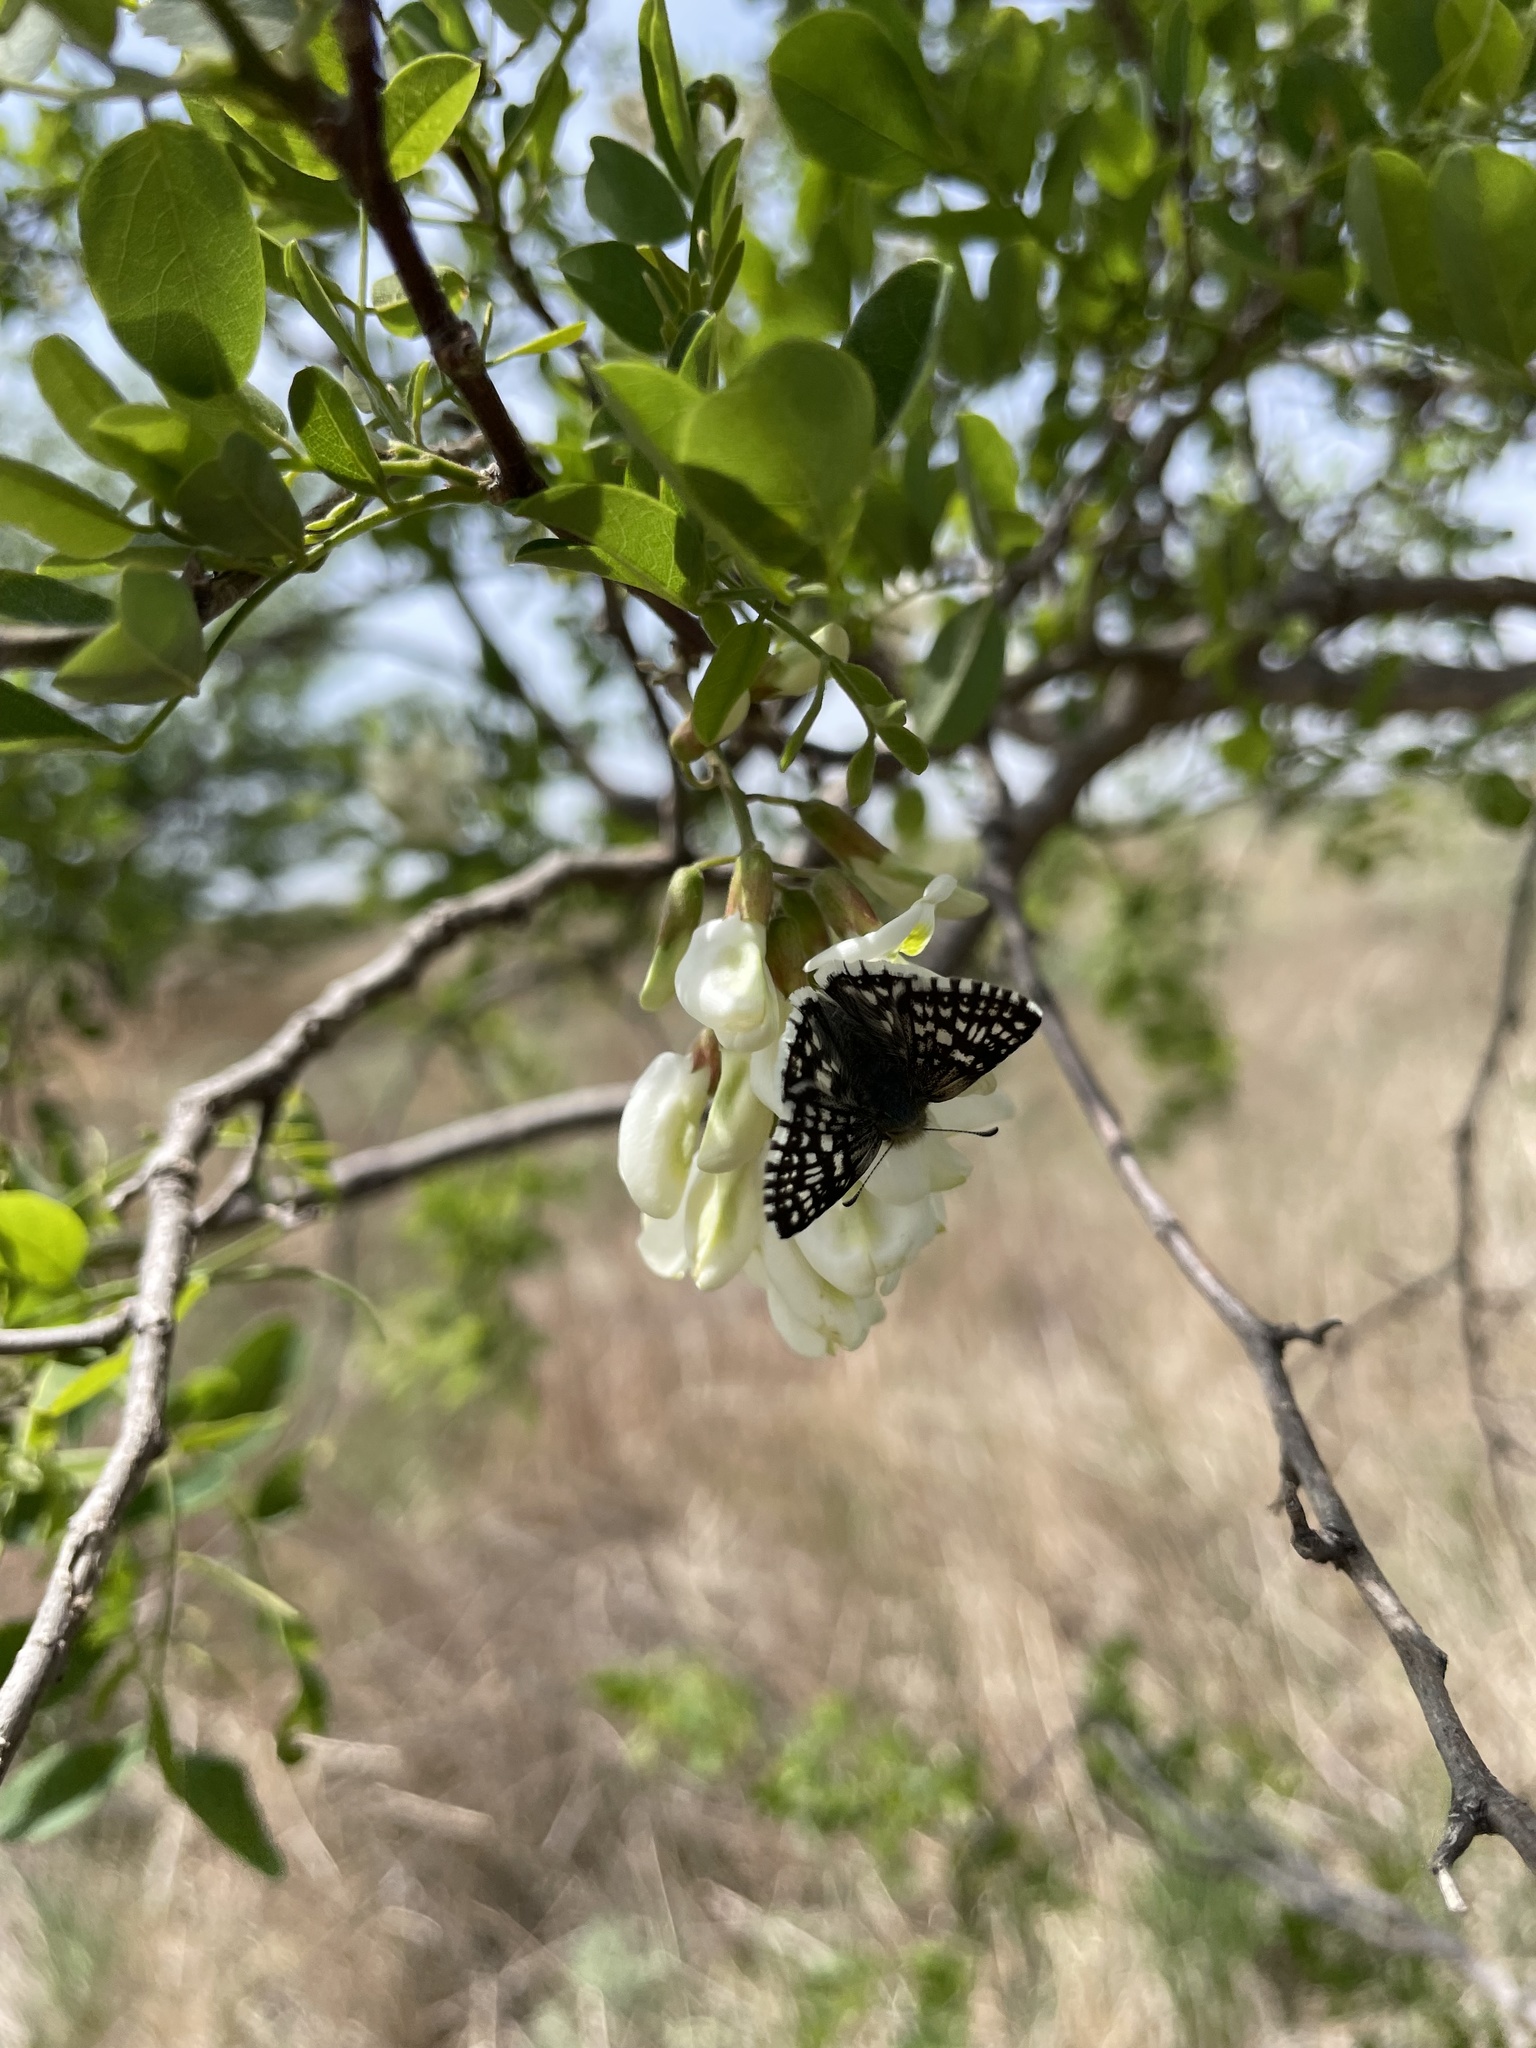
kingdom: Animalia
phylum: Arthropoda
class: Insecta
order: Lepidoptera
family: Hesperiidae
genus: Burnsius
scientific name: Burnsius communis
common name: Common checkered-skipper
